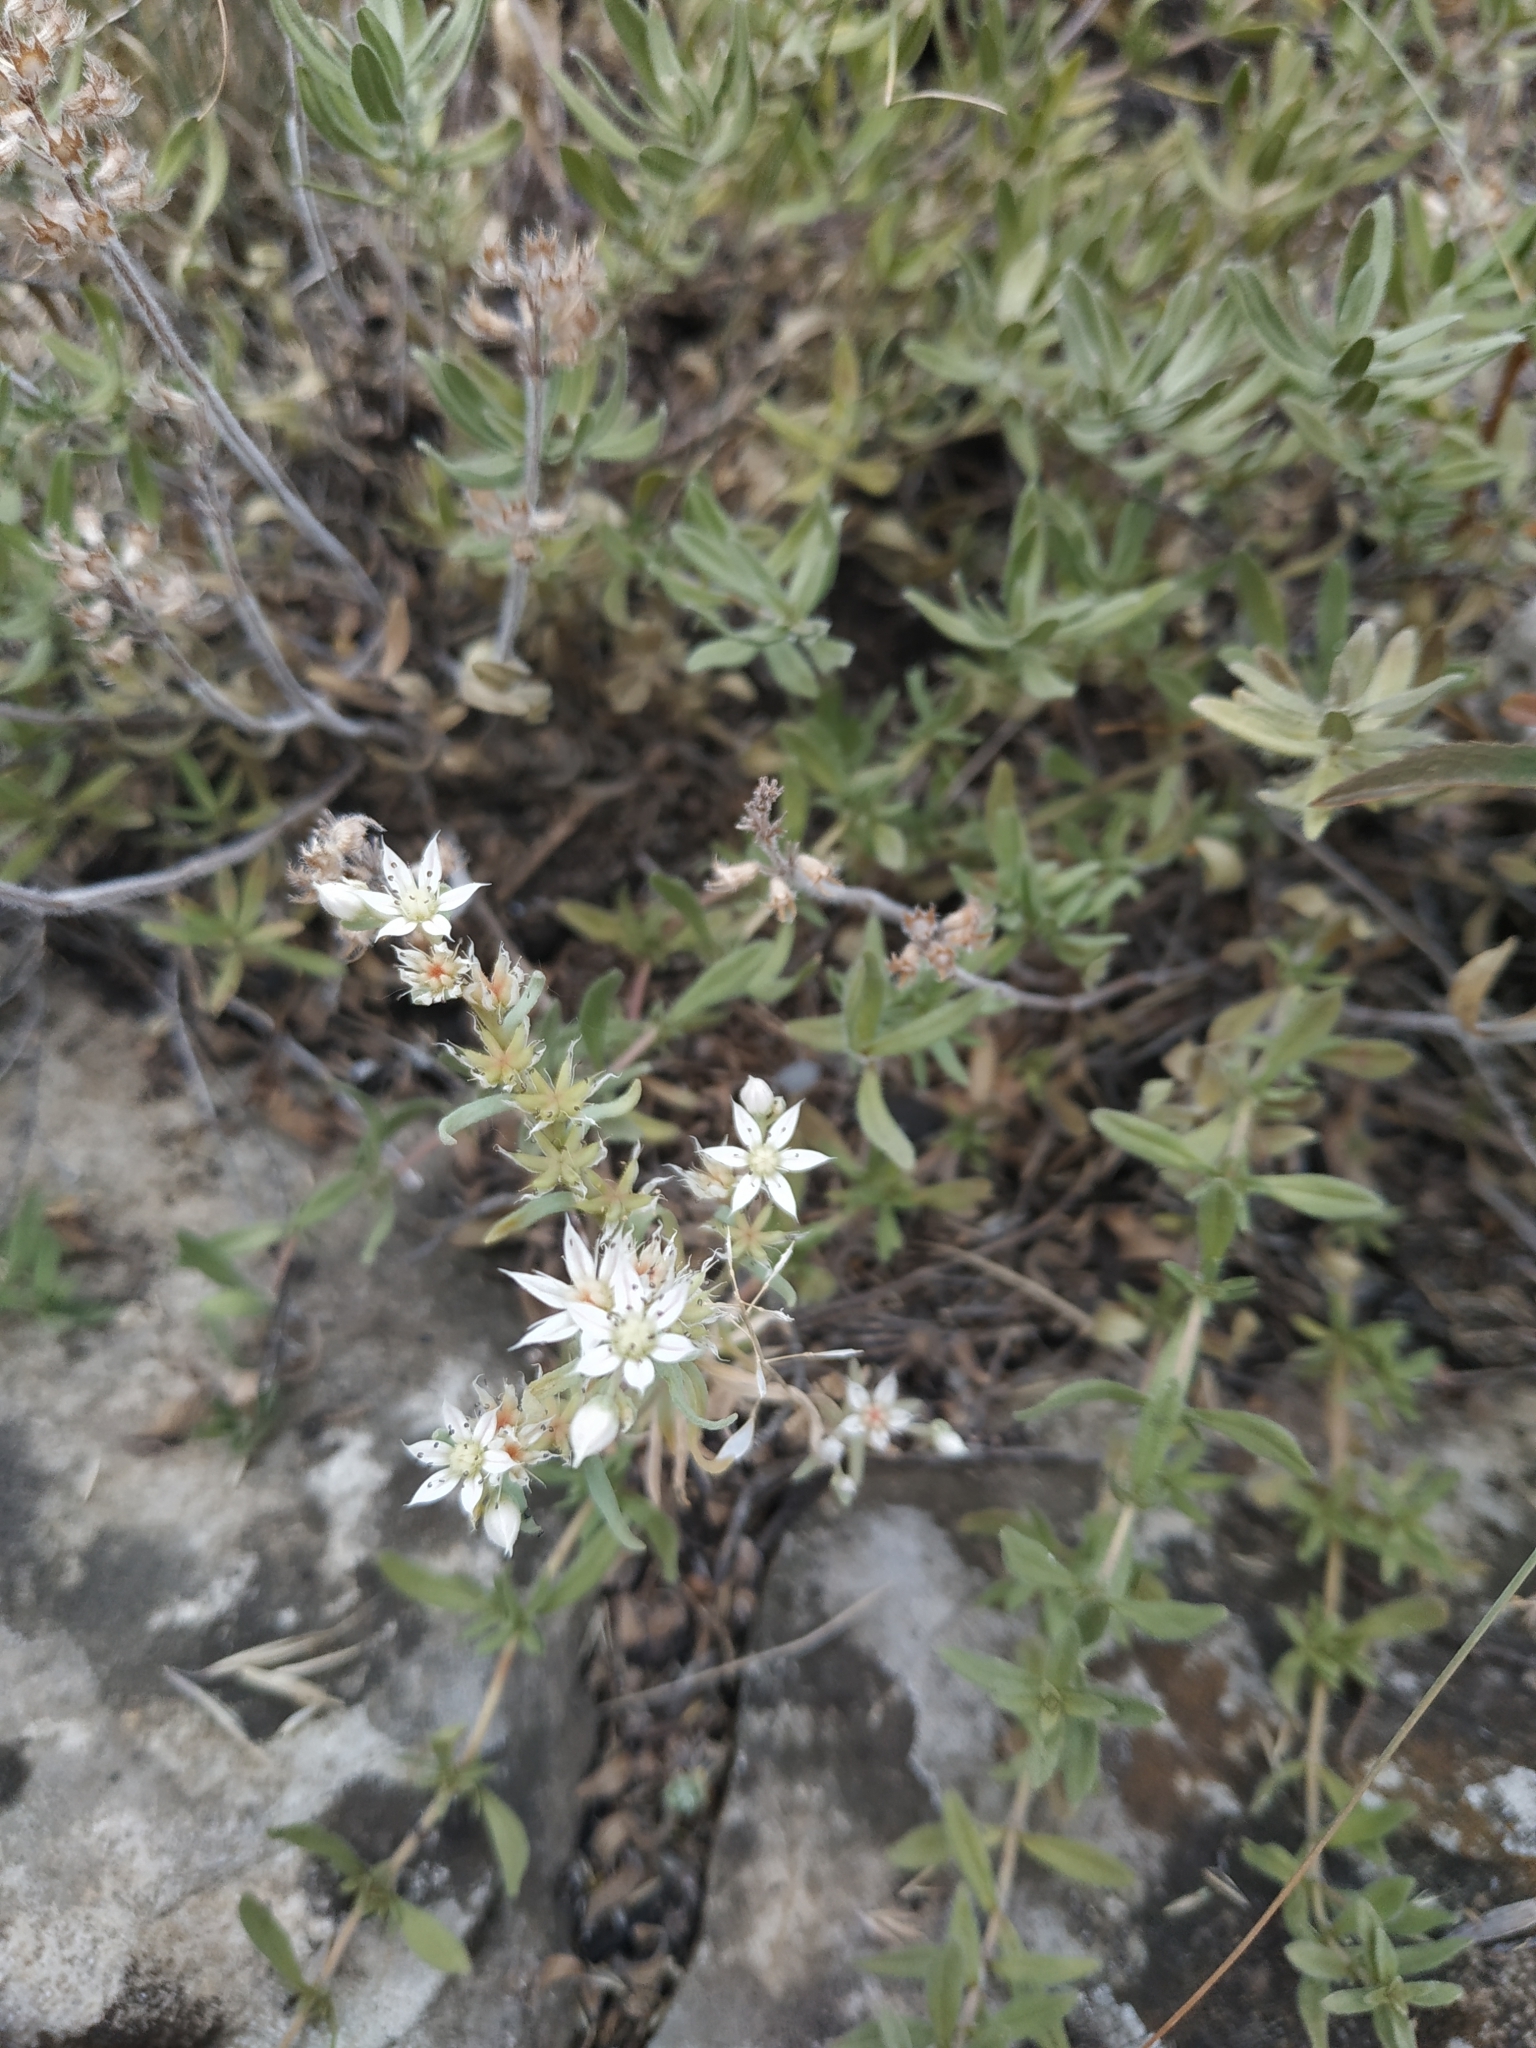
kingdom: Plantae
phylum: Tracheophyta
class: Magnoliopsida
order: Saxifragales
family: Crassulaceae
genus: Sedum
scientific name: Sedum hispanicum
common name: Spanish stonecrop
